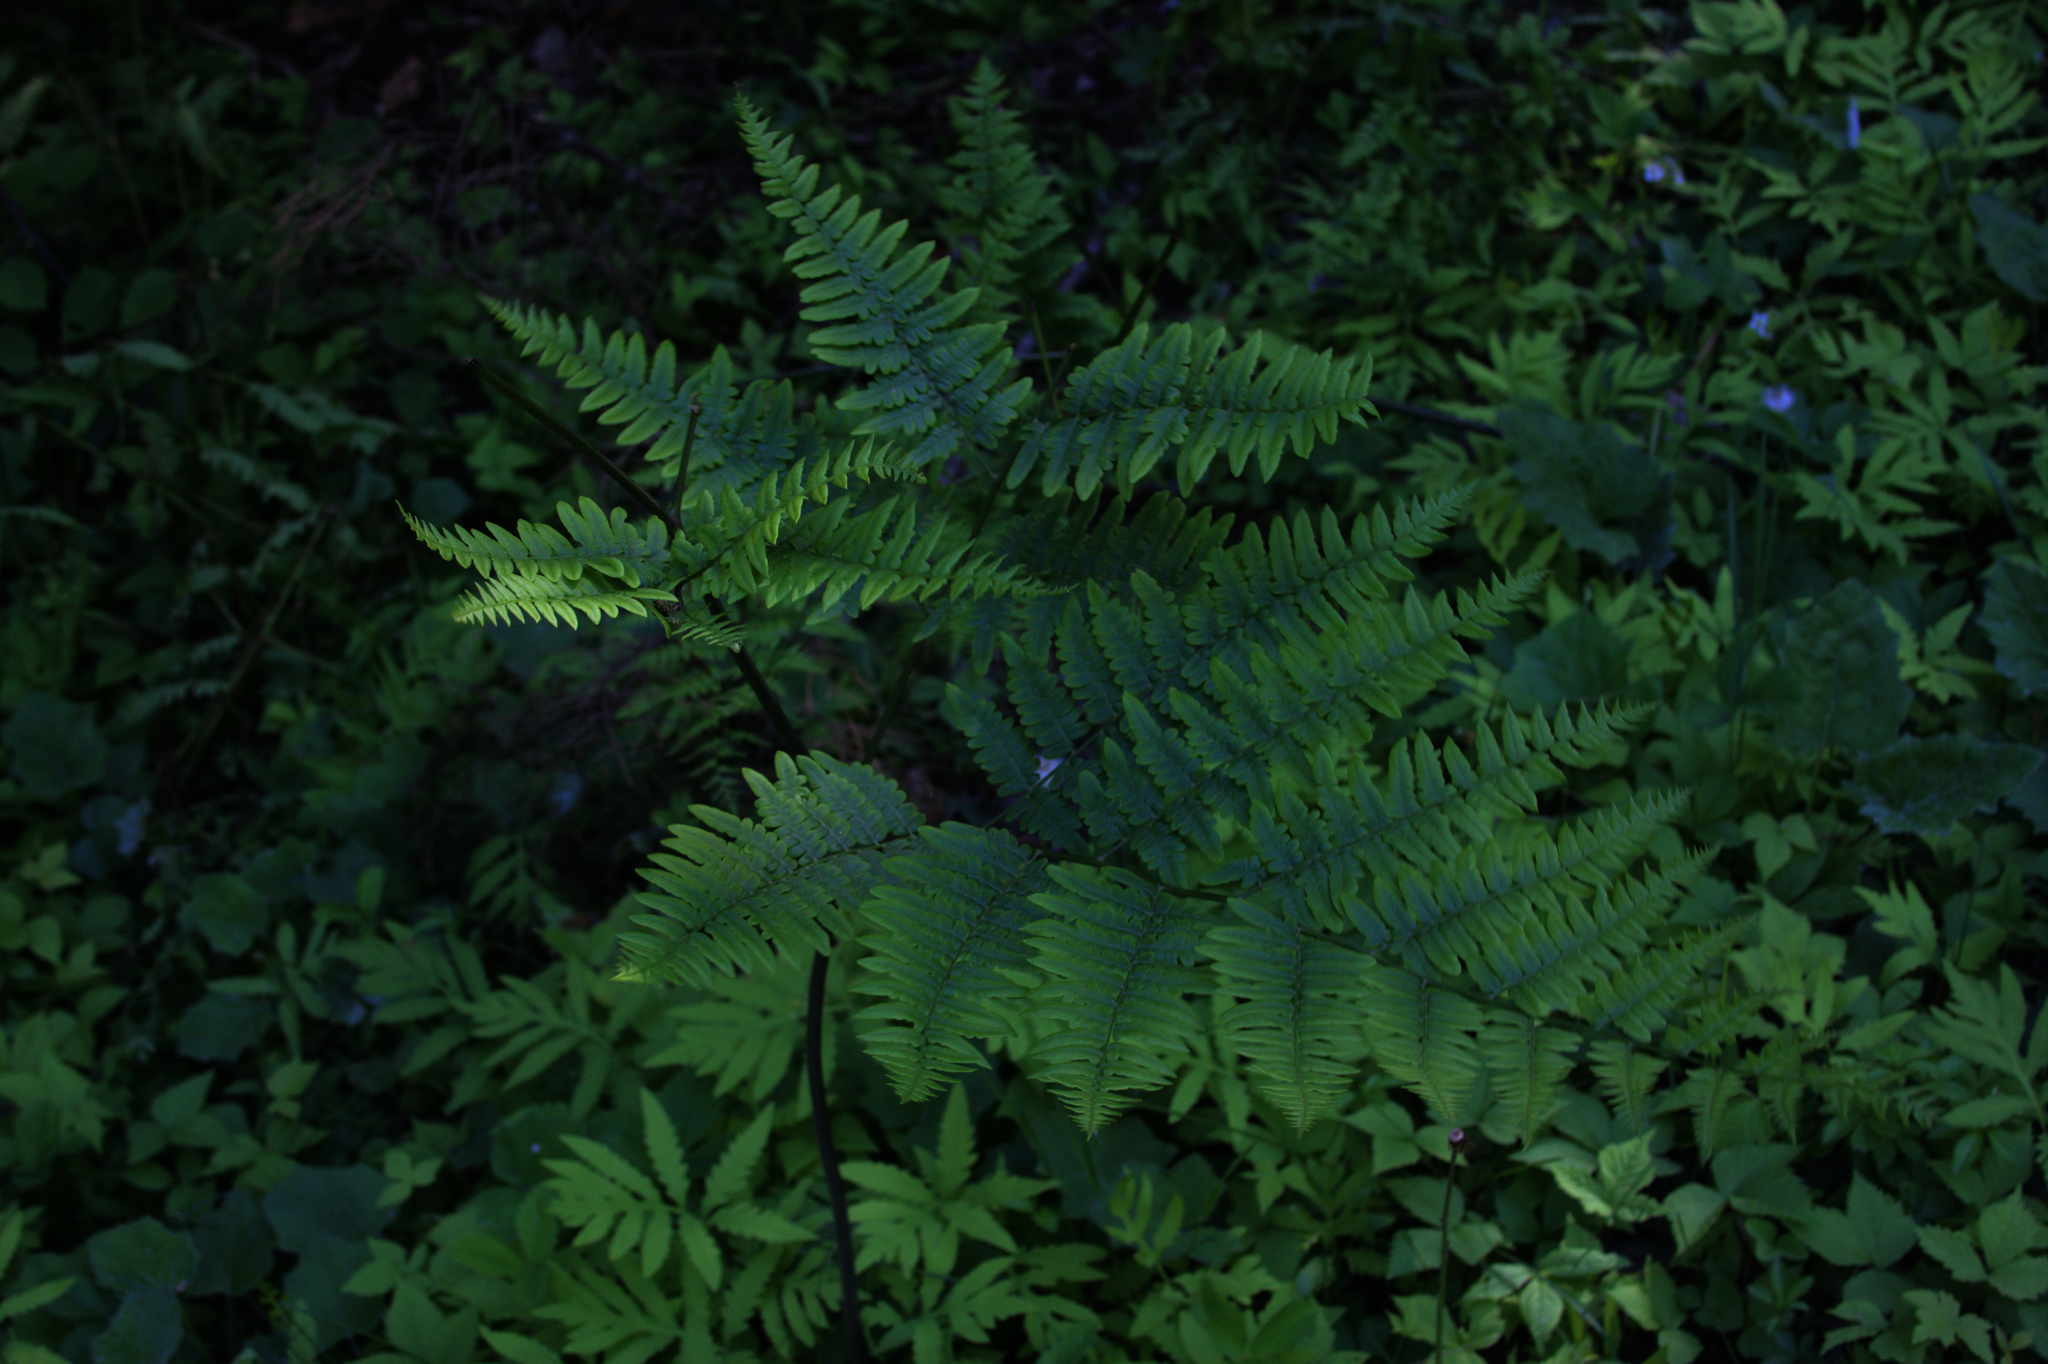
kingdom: Plantae
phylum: Tracheophyta
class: Polypodiopsida
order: Polypodiales
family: Dennstaedtiaceae
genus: Pteridium
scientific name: Pteridium aquilinum
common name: Bracken
